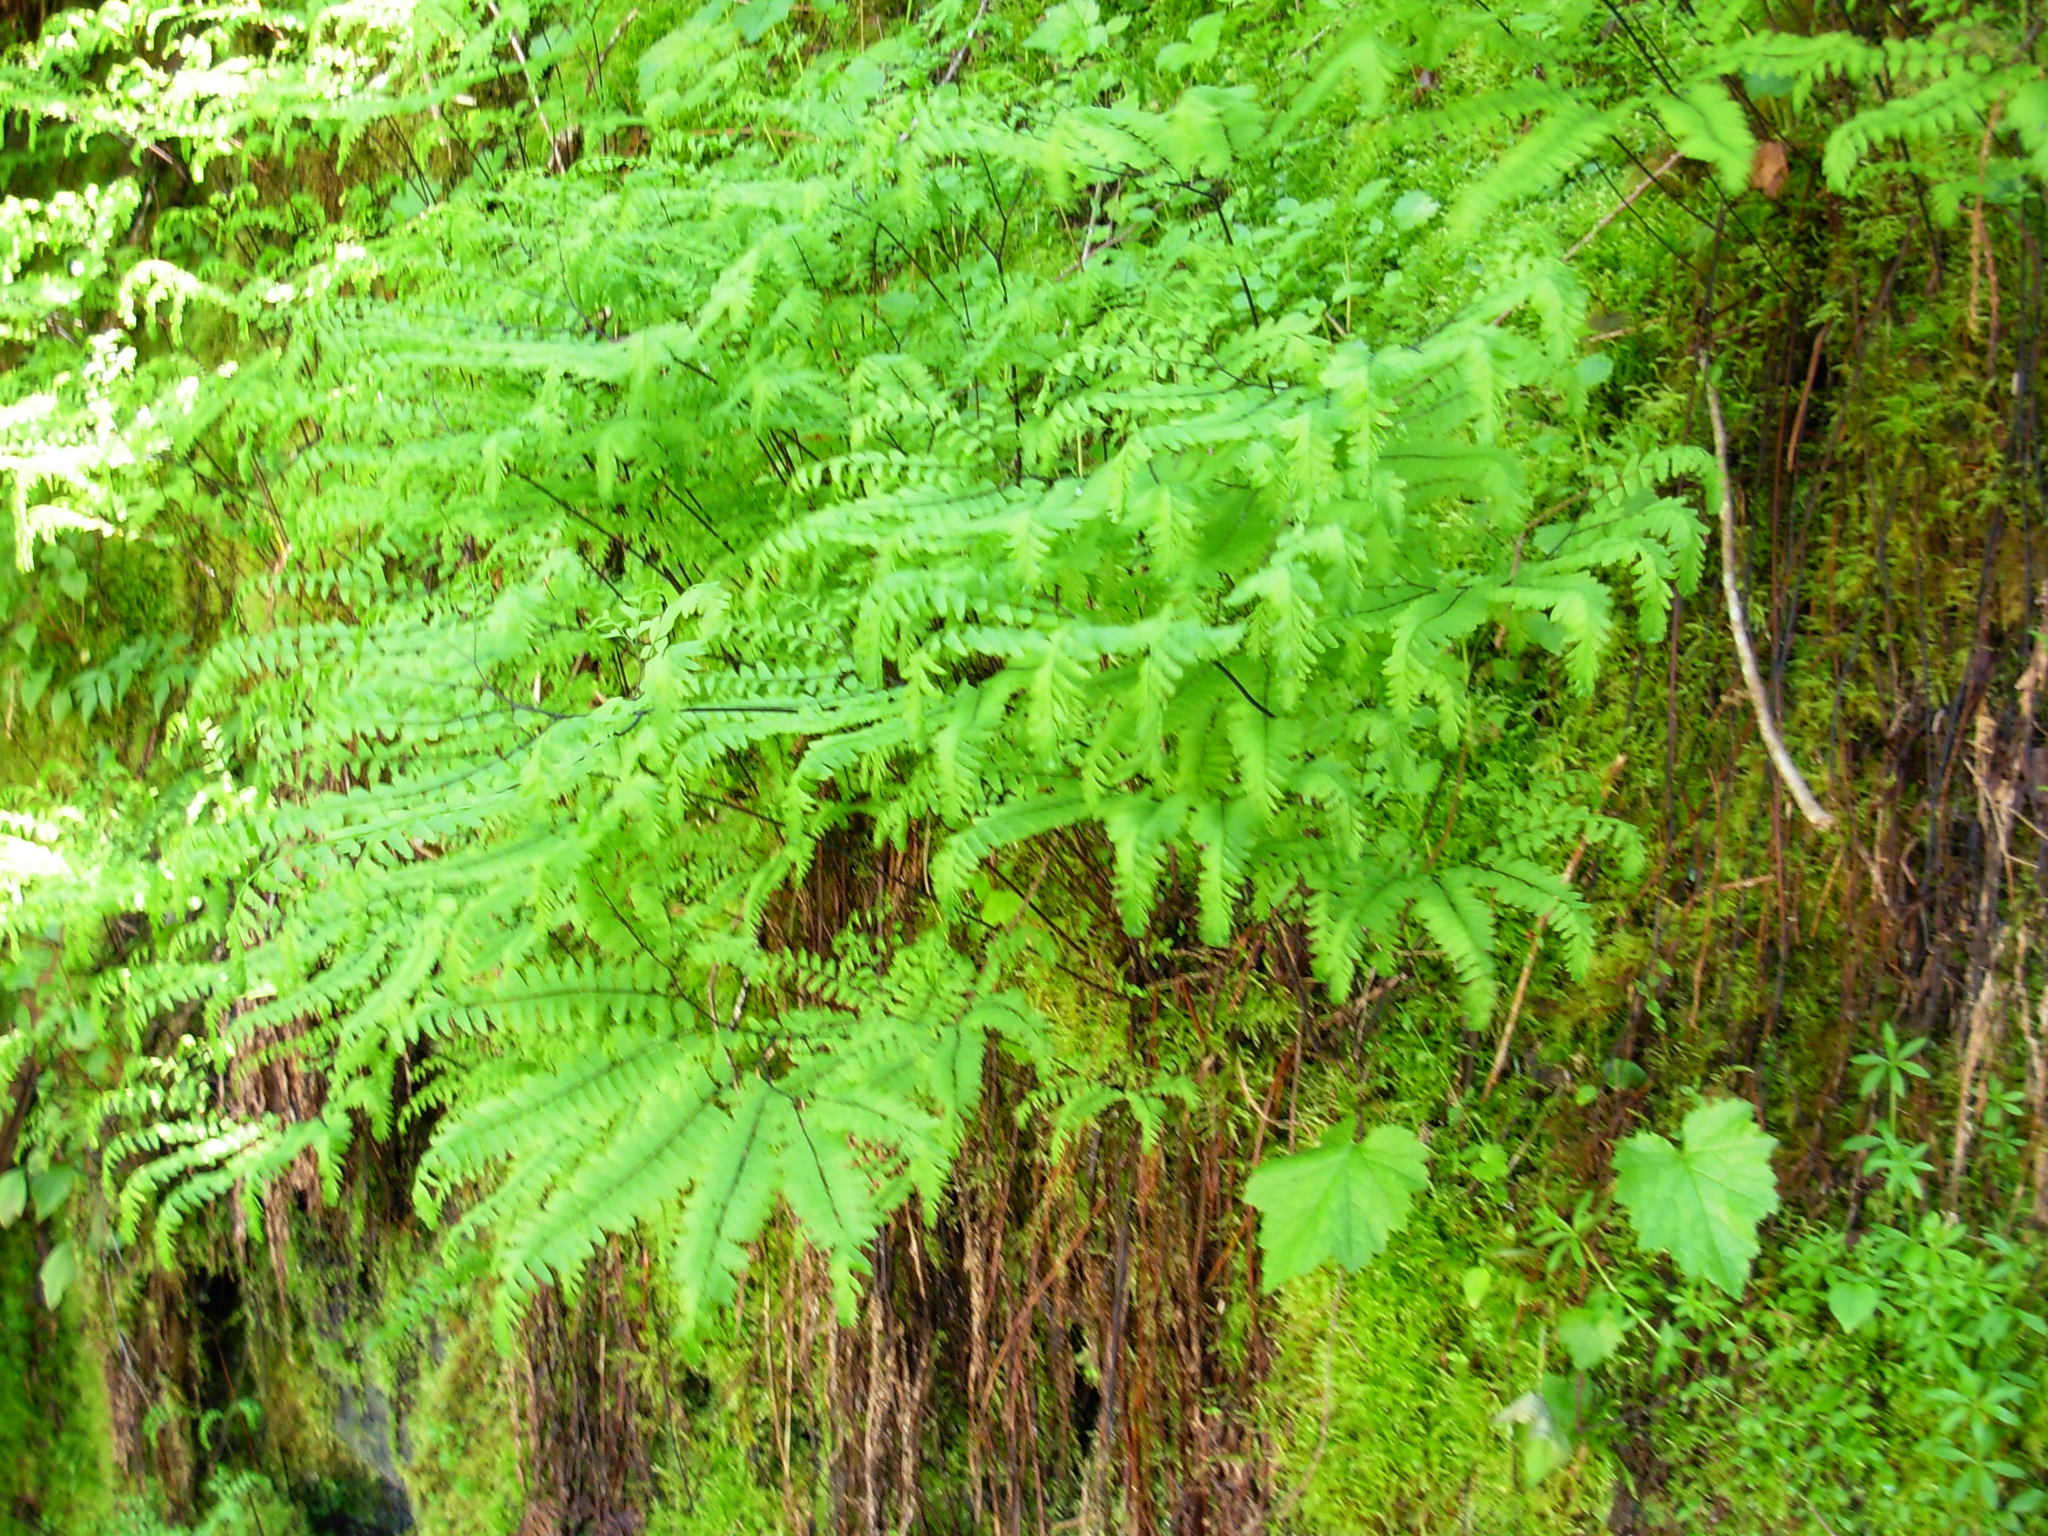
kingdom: Plantae
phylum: Tracheophyta
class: Polypodiopsida
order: Polypodiales
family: Pteridaceae
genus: Adiantum
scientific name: Adiantum aleuticum
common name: Aleutian maidenhair fern
